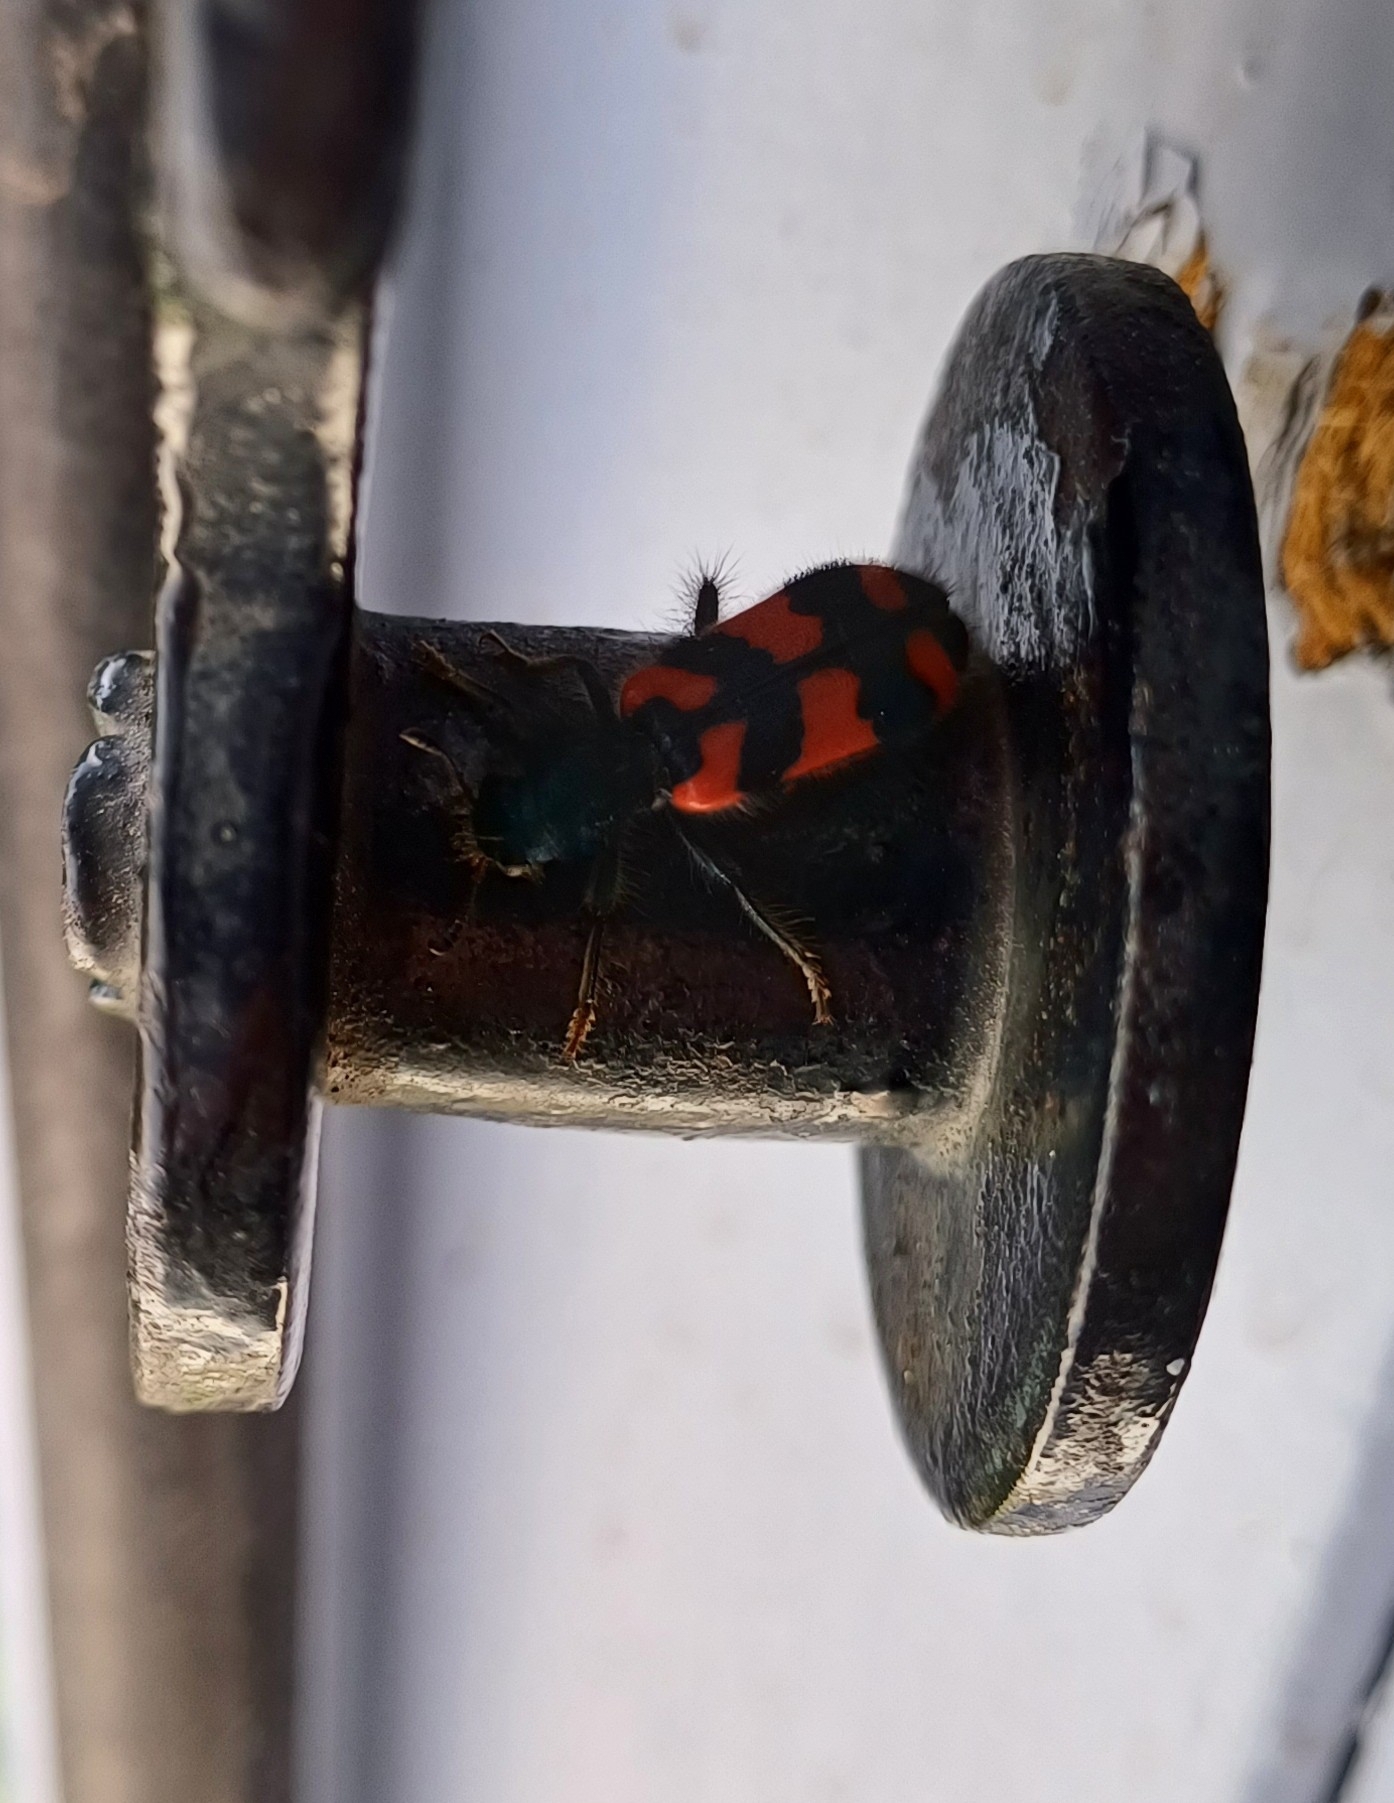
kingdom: Animalia
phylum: Arthropoda
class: Insecta
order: Coleoptera
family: Cleridae
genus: Trichodes
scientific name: Trichodes alvearius
